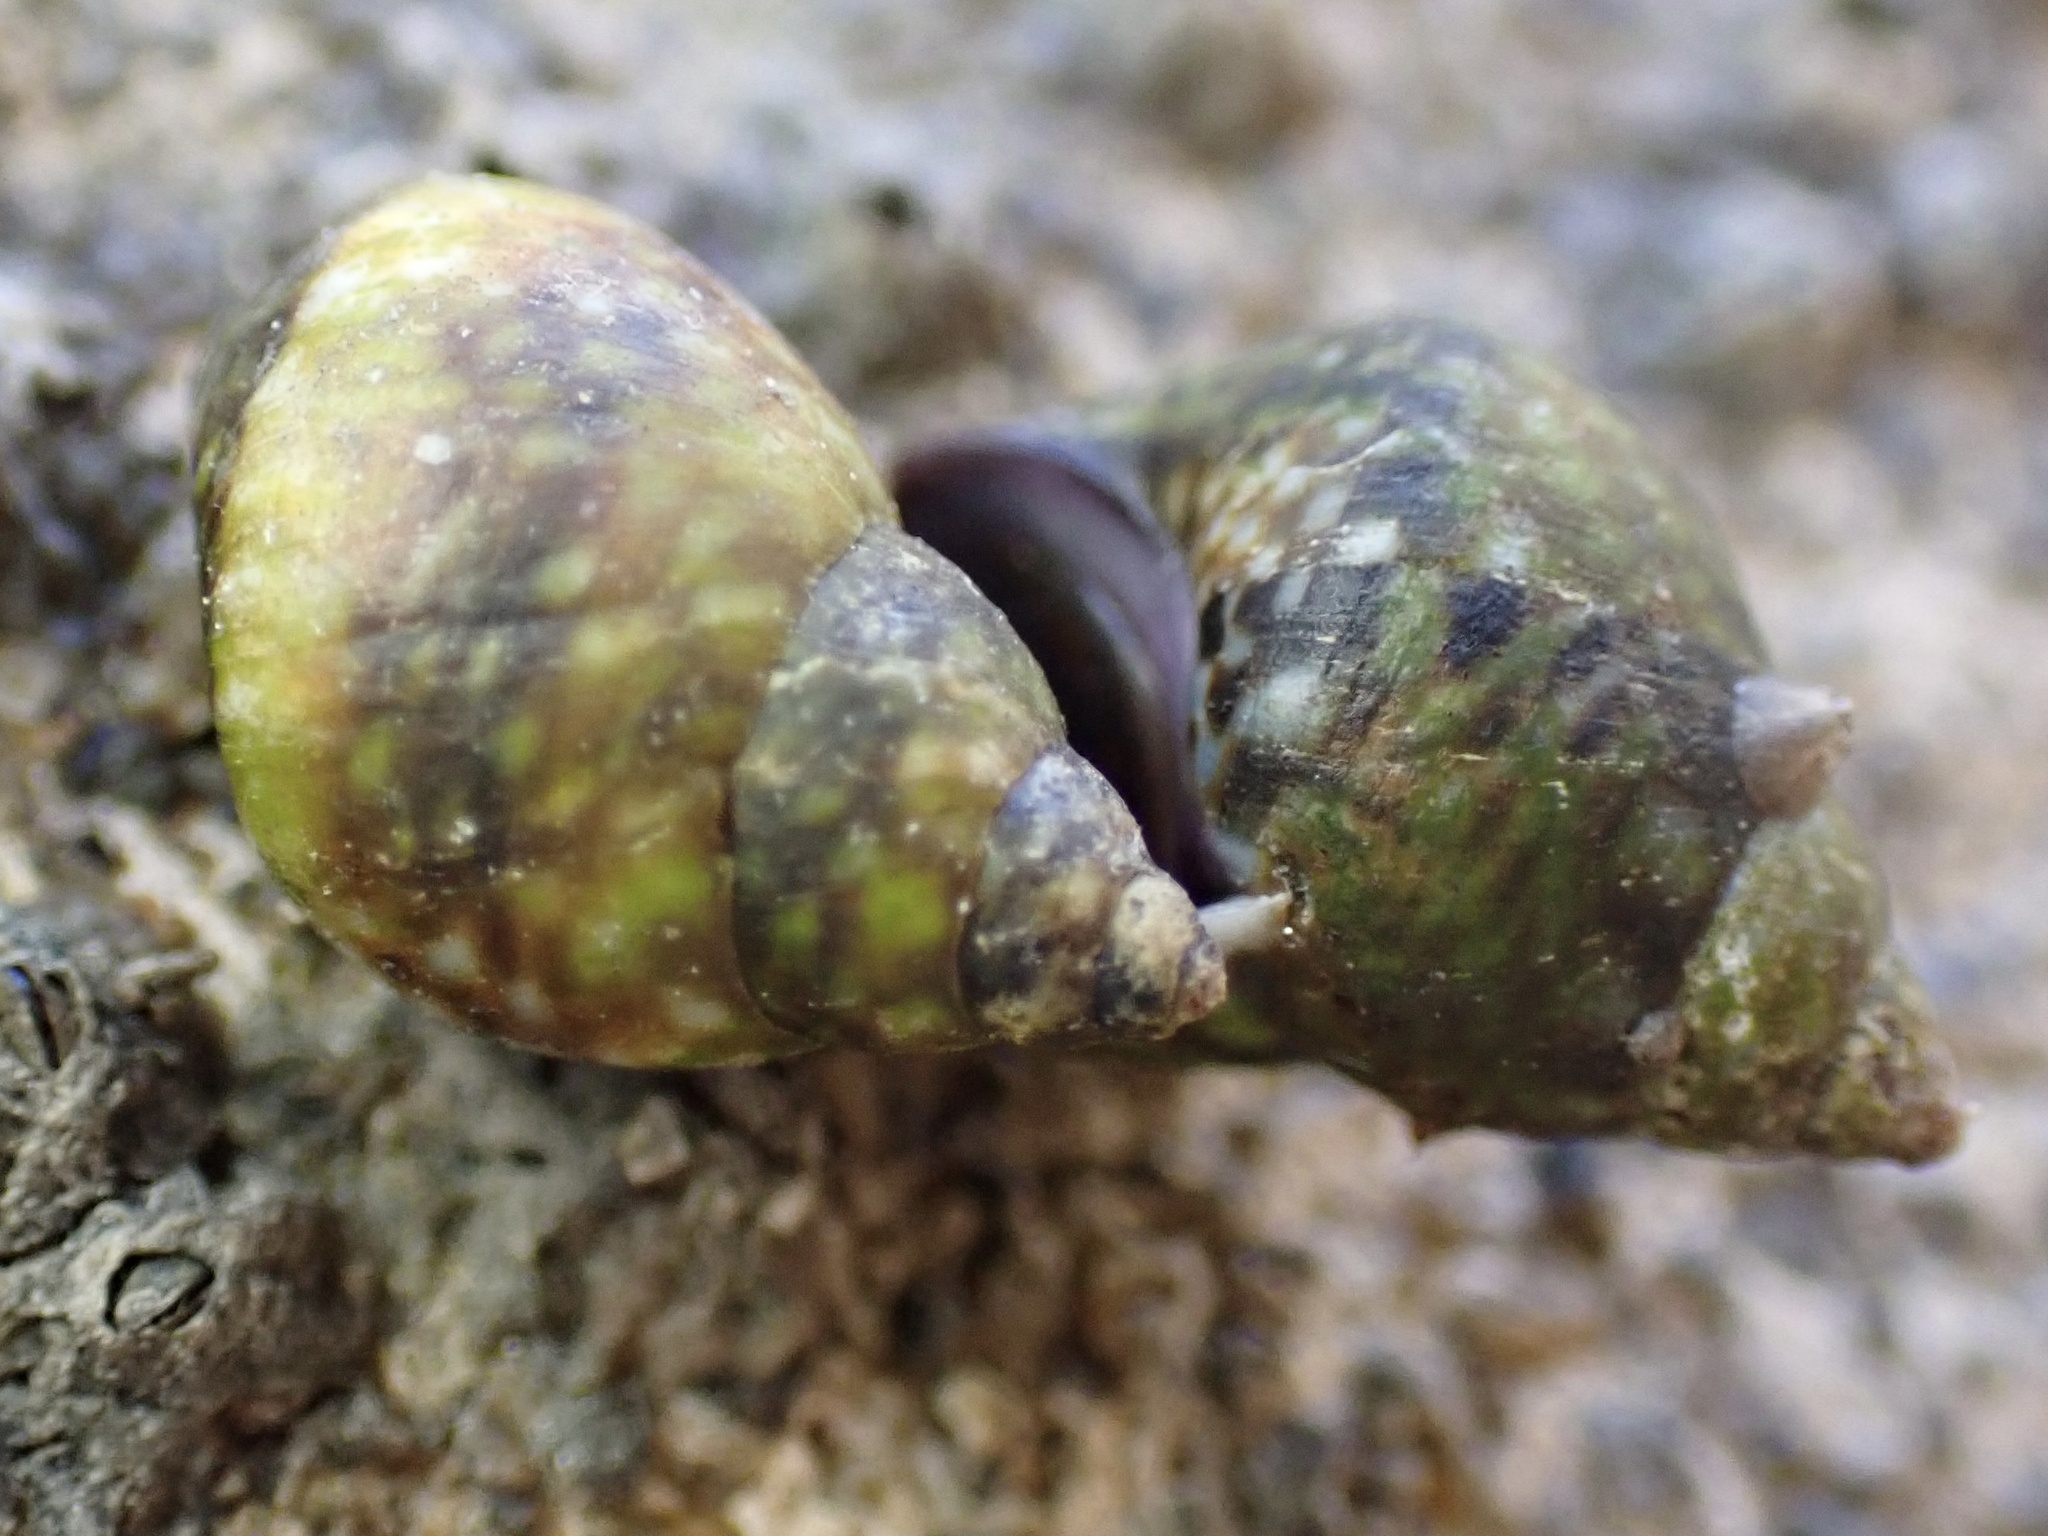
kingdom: Animalia
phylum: Mollusca
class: Gastropoda
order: Littorinimorpha
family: Littorinidae
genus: Littorina
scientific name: Littorina scutulata
